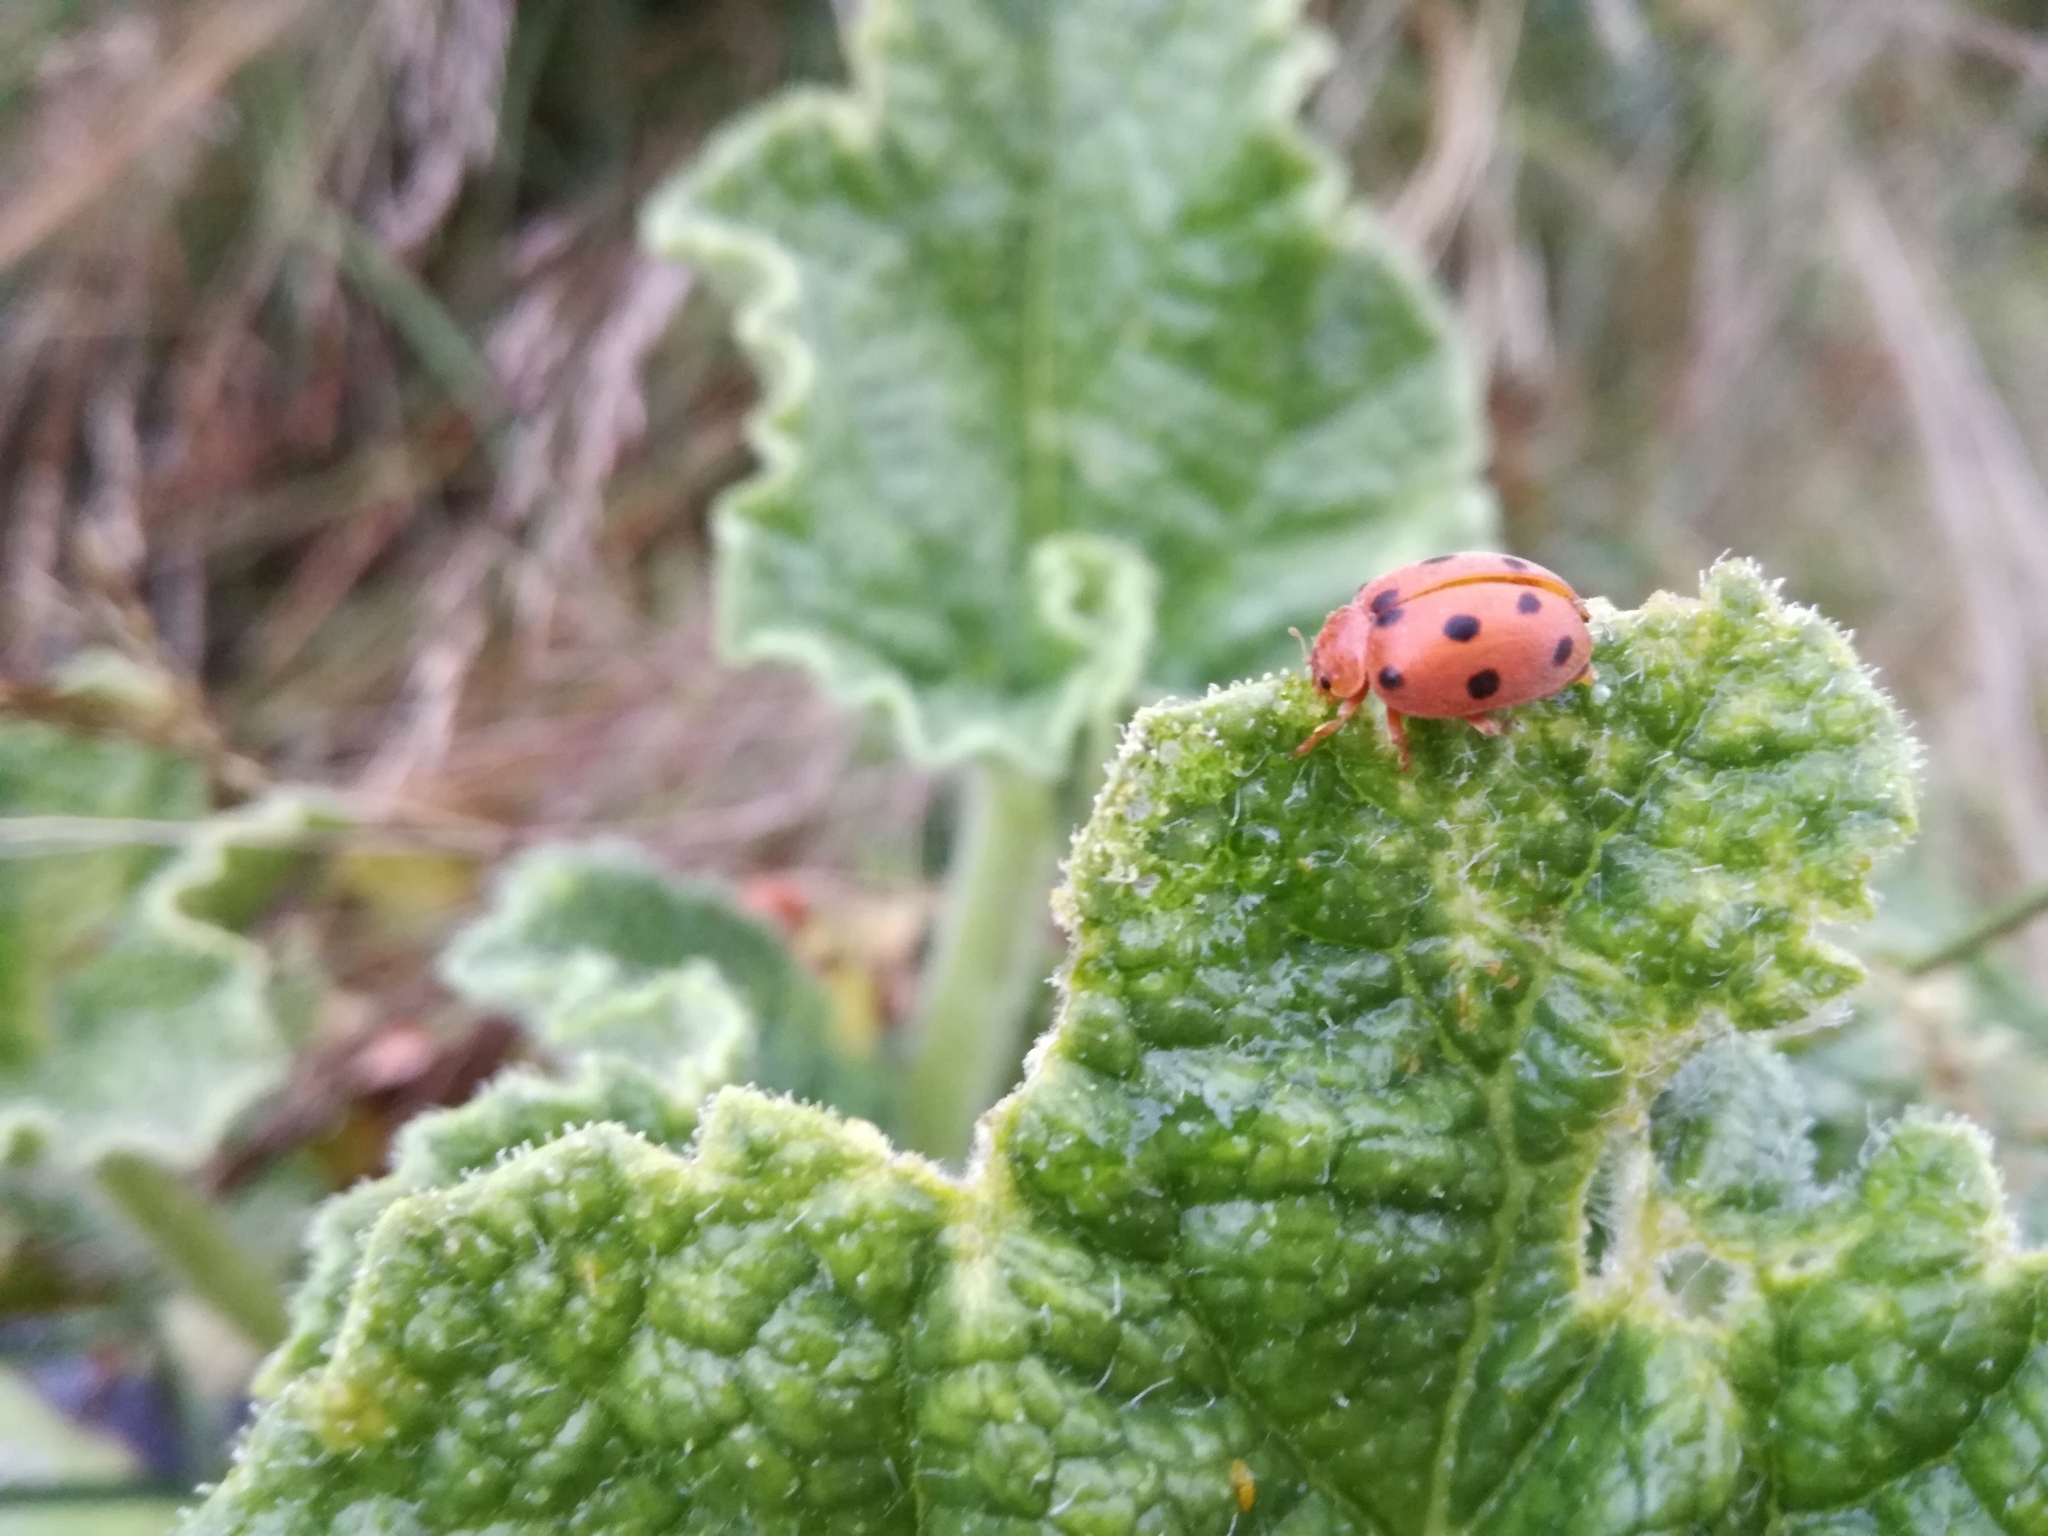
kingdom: Animalia
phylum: Arthropoda
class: Insecta
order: Coleoptera
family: Coccinellidae
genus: Henosepilachna
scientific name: Henosepilachna argus
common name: Bryony ladybird
